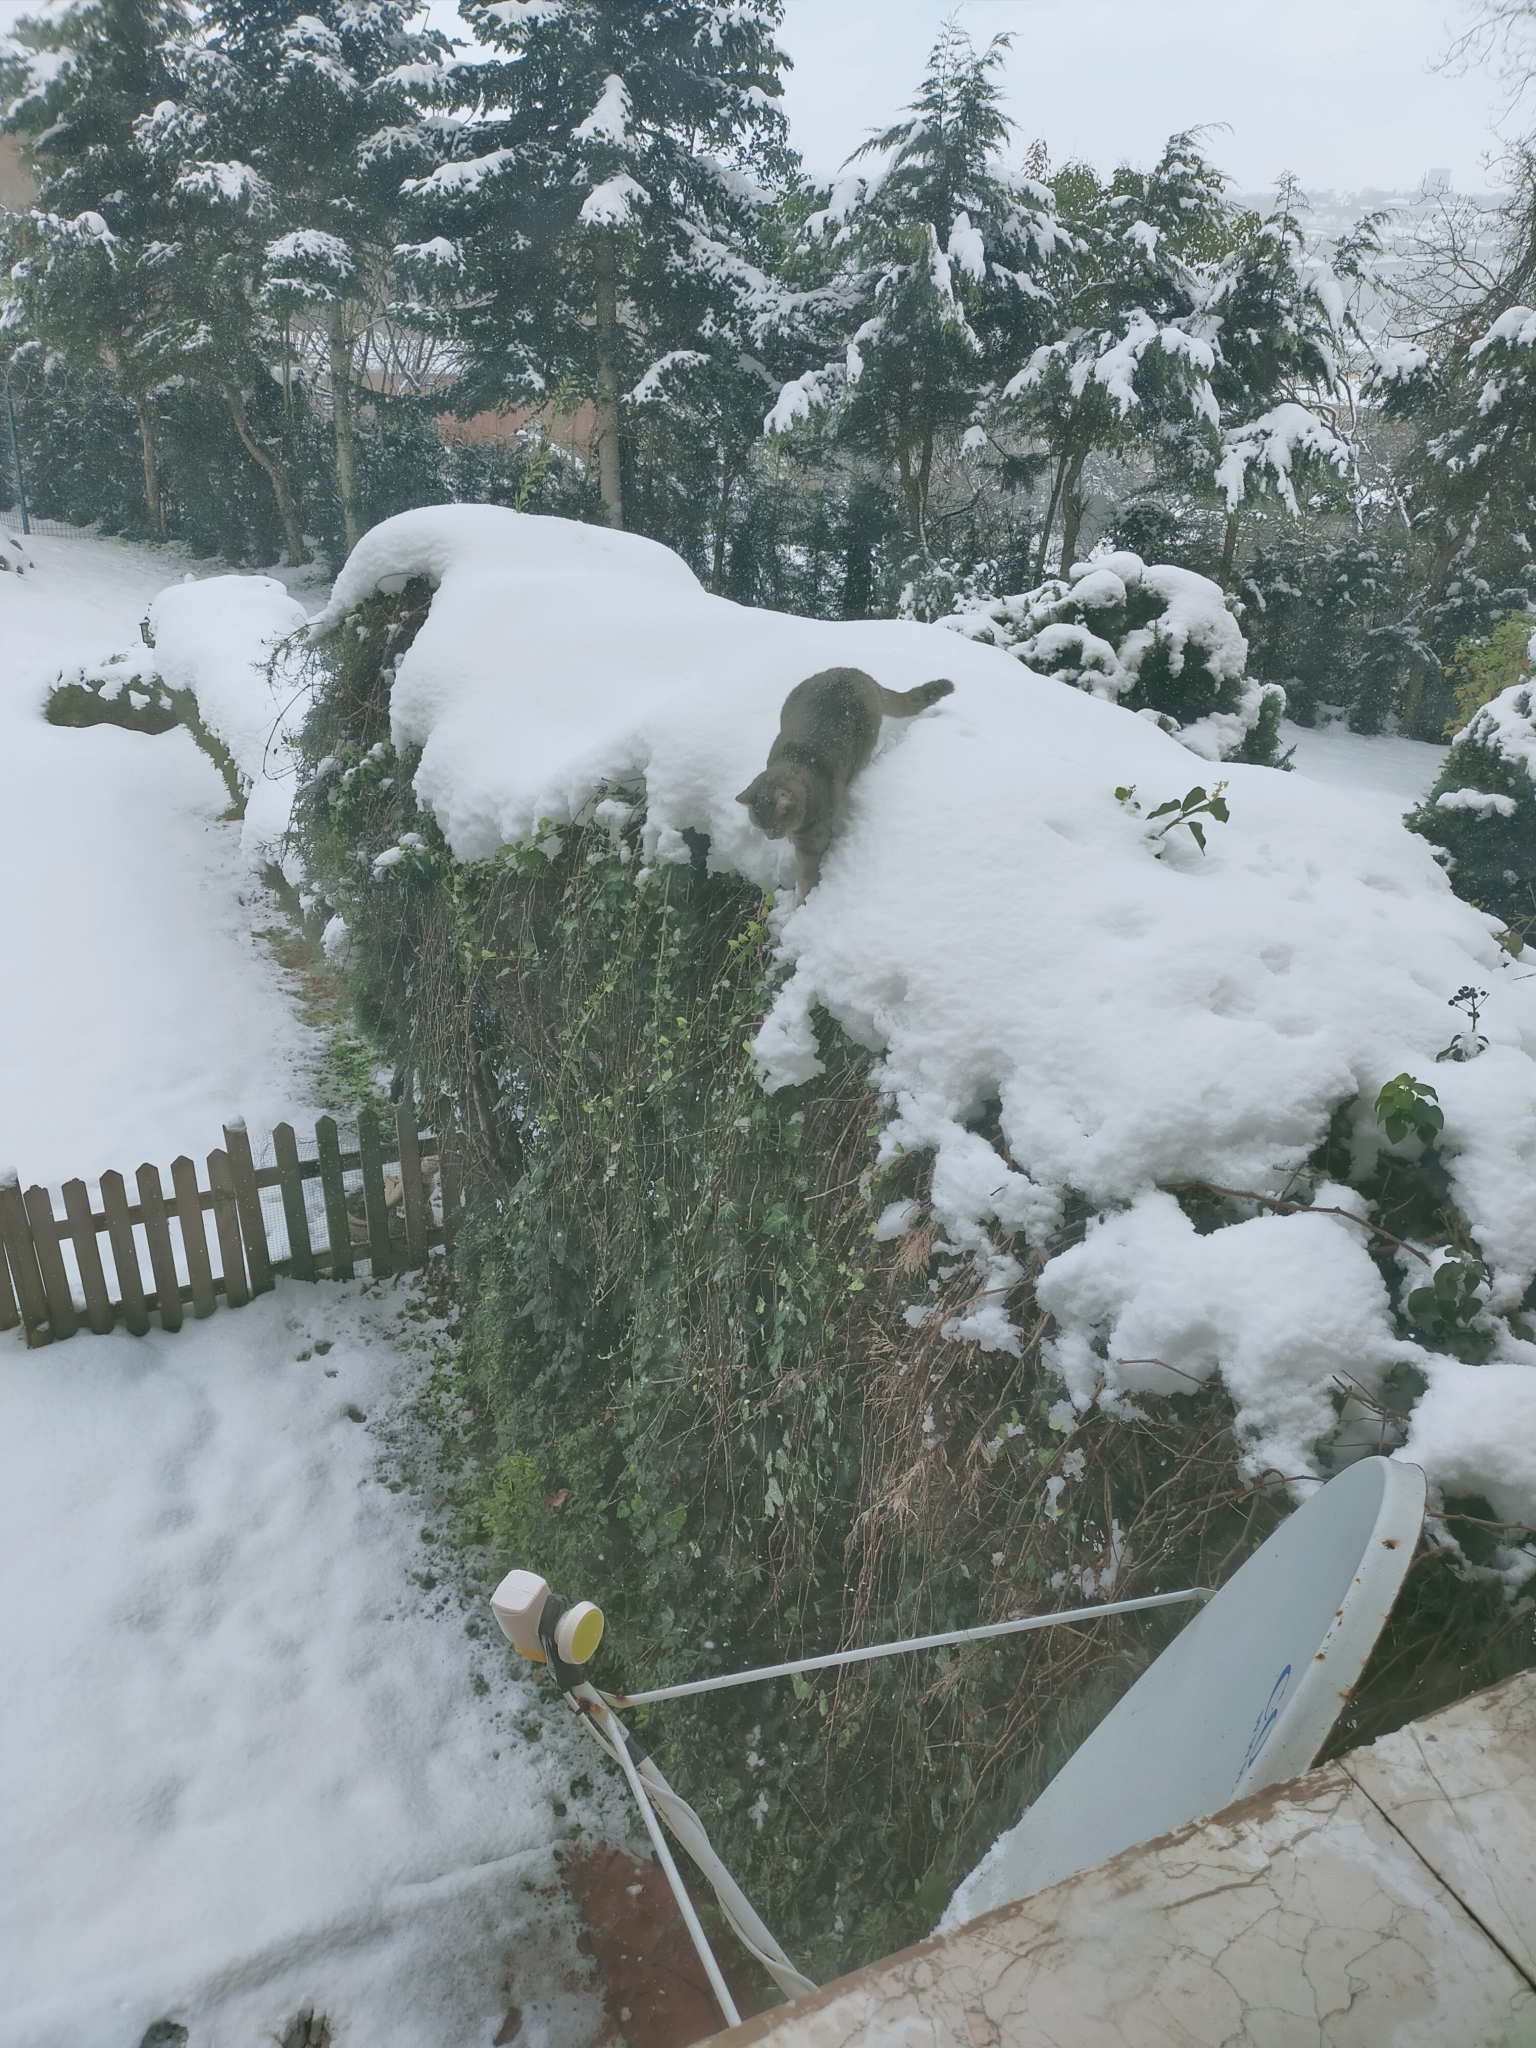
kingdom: Animalia
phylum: Chordata
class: Mammalia
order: Carnivora
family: Felidae
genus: Felis
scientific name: Felis catus
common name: Domestic cat
